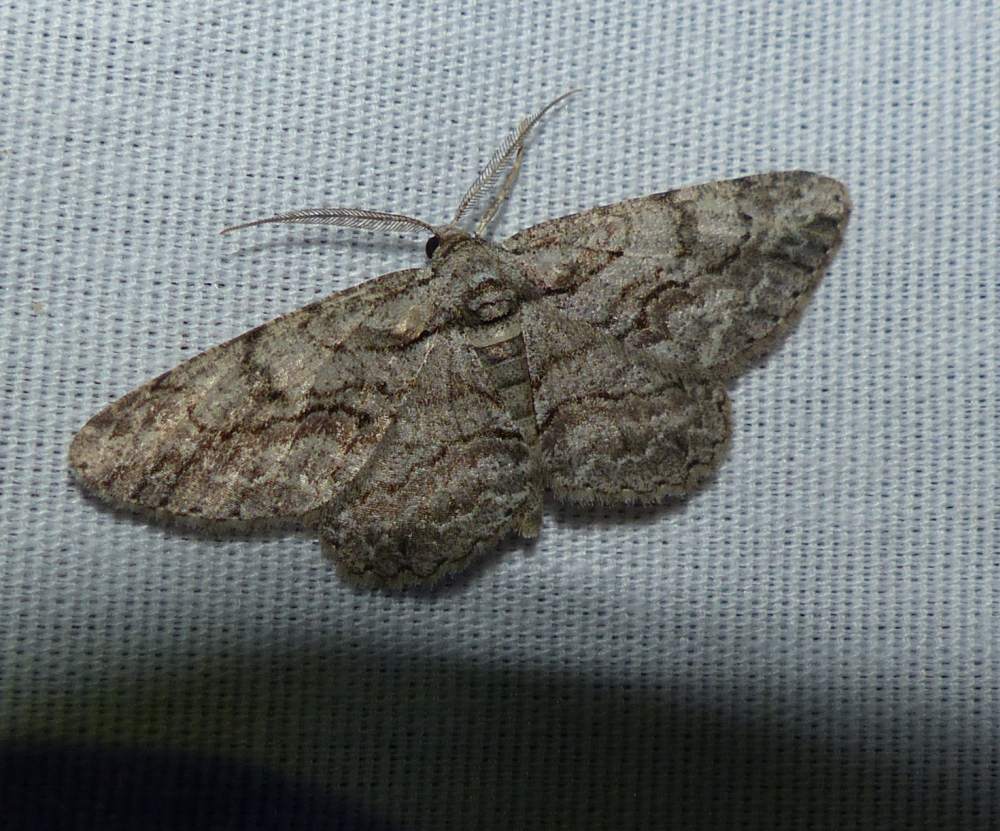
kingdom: Animalia
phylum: Arthropoda
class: Insecta
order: Lepidoptera
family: Geometridae
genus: Anavitrinella
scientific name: Anavitrinella pampinaria
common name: Common gray
